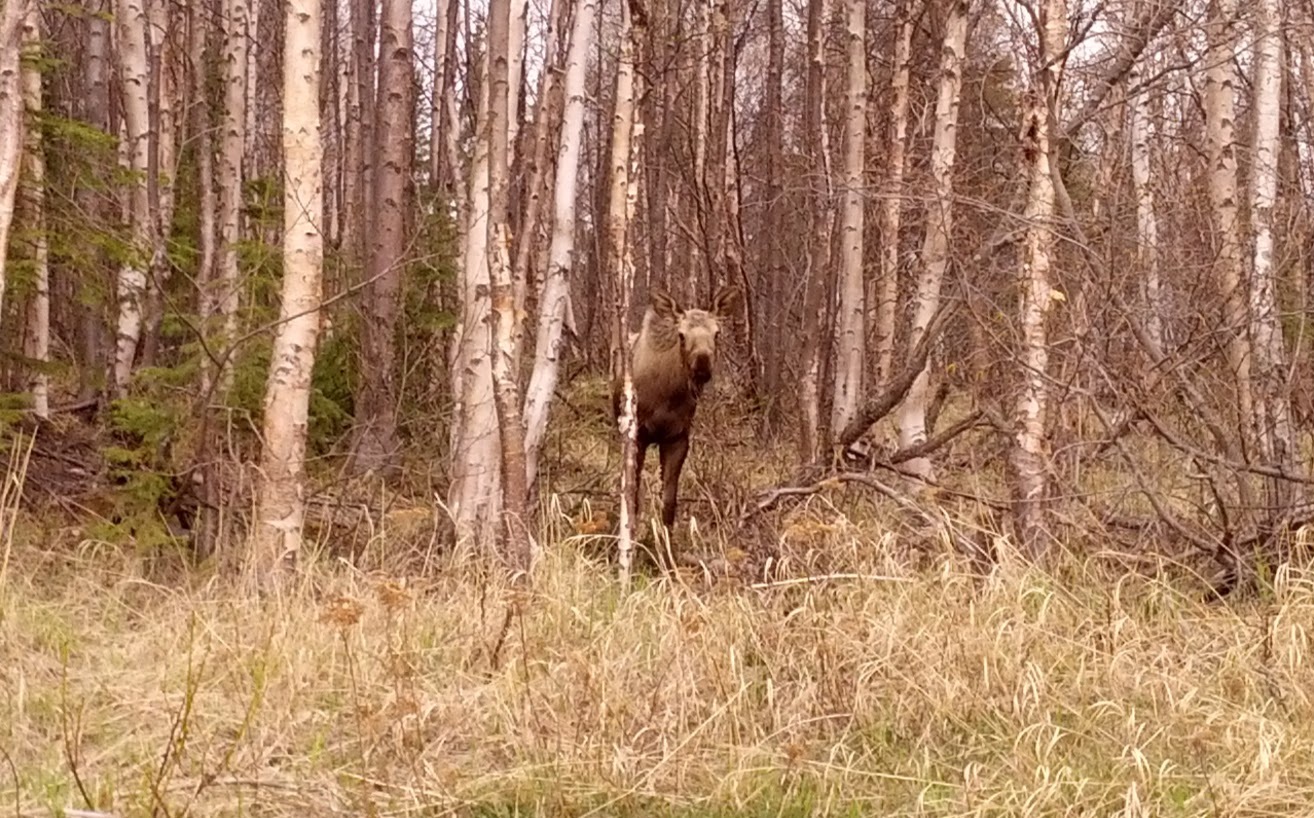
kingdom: Animalia
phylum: Chordata
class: Mammalia
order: Artiodactyla
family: Cervidae
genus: Alces
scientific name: Alces alces
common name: Moose
